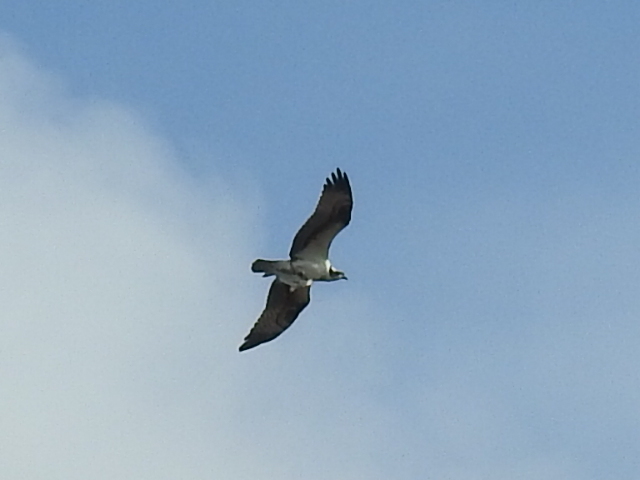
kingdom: Animalia
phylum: Chordata
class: Aves
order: Accipitriformes
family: Pandionidae
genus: Pandion
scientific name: Pandion haliaetus
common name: Osprey
